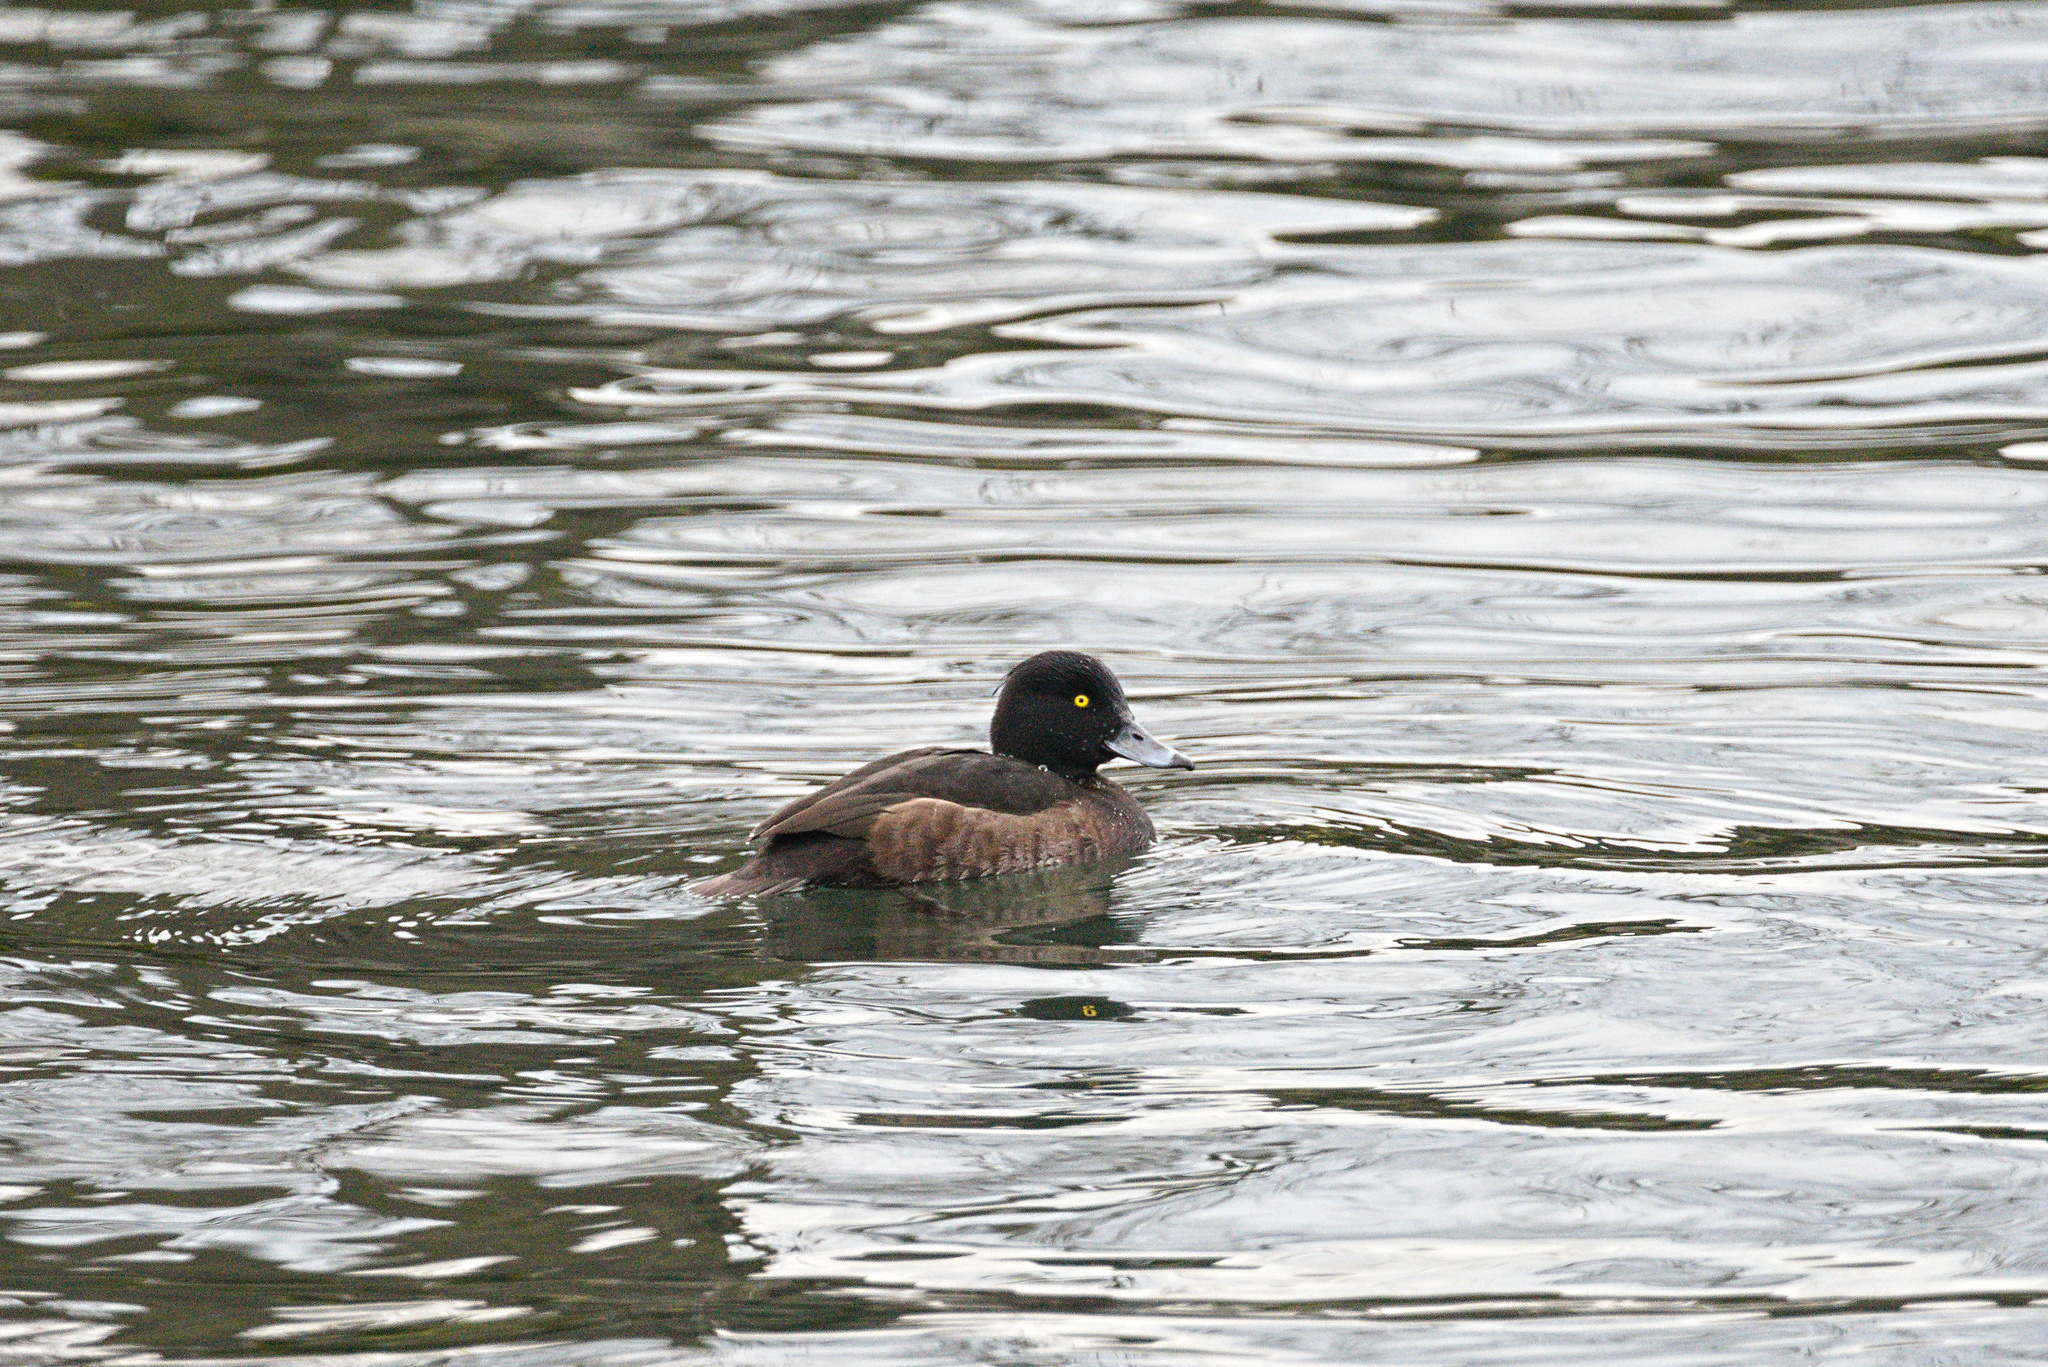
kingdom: Animalia
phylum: Chordata
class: Aves
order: Anseriformes
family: Anatidae
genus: Aythya
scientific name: Aythya fuligula
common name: Tufted duck
